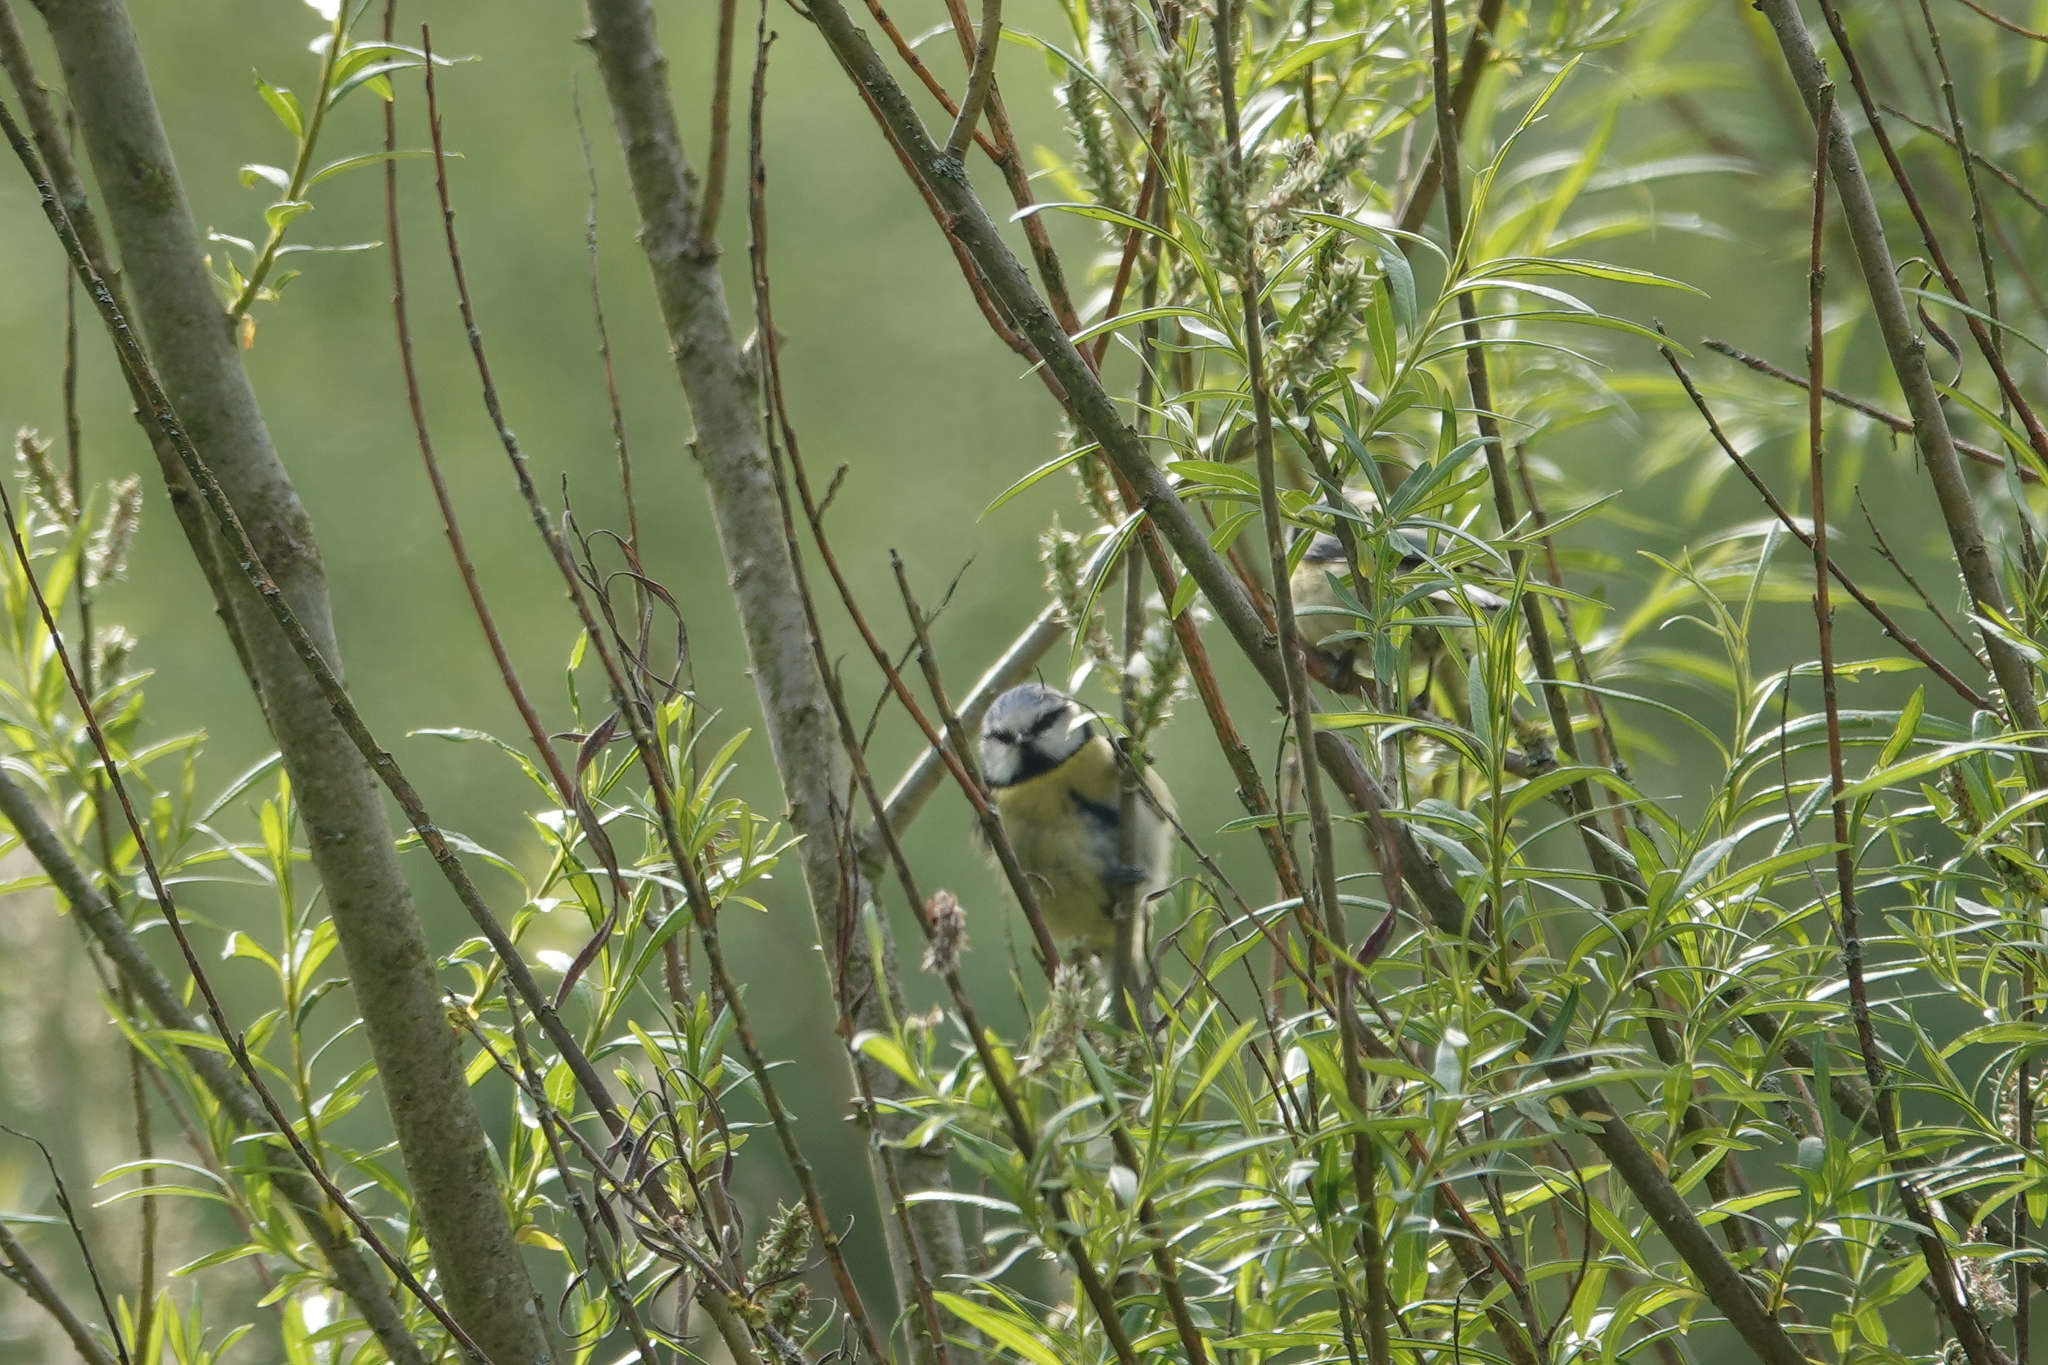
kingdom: Animalia
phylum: Chordata
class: Aves
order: Passeriformes
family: Paridae
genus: Cyanistes
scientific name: Cyanistes caeruleus
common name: Eurasian blue tit
